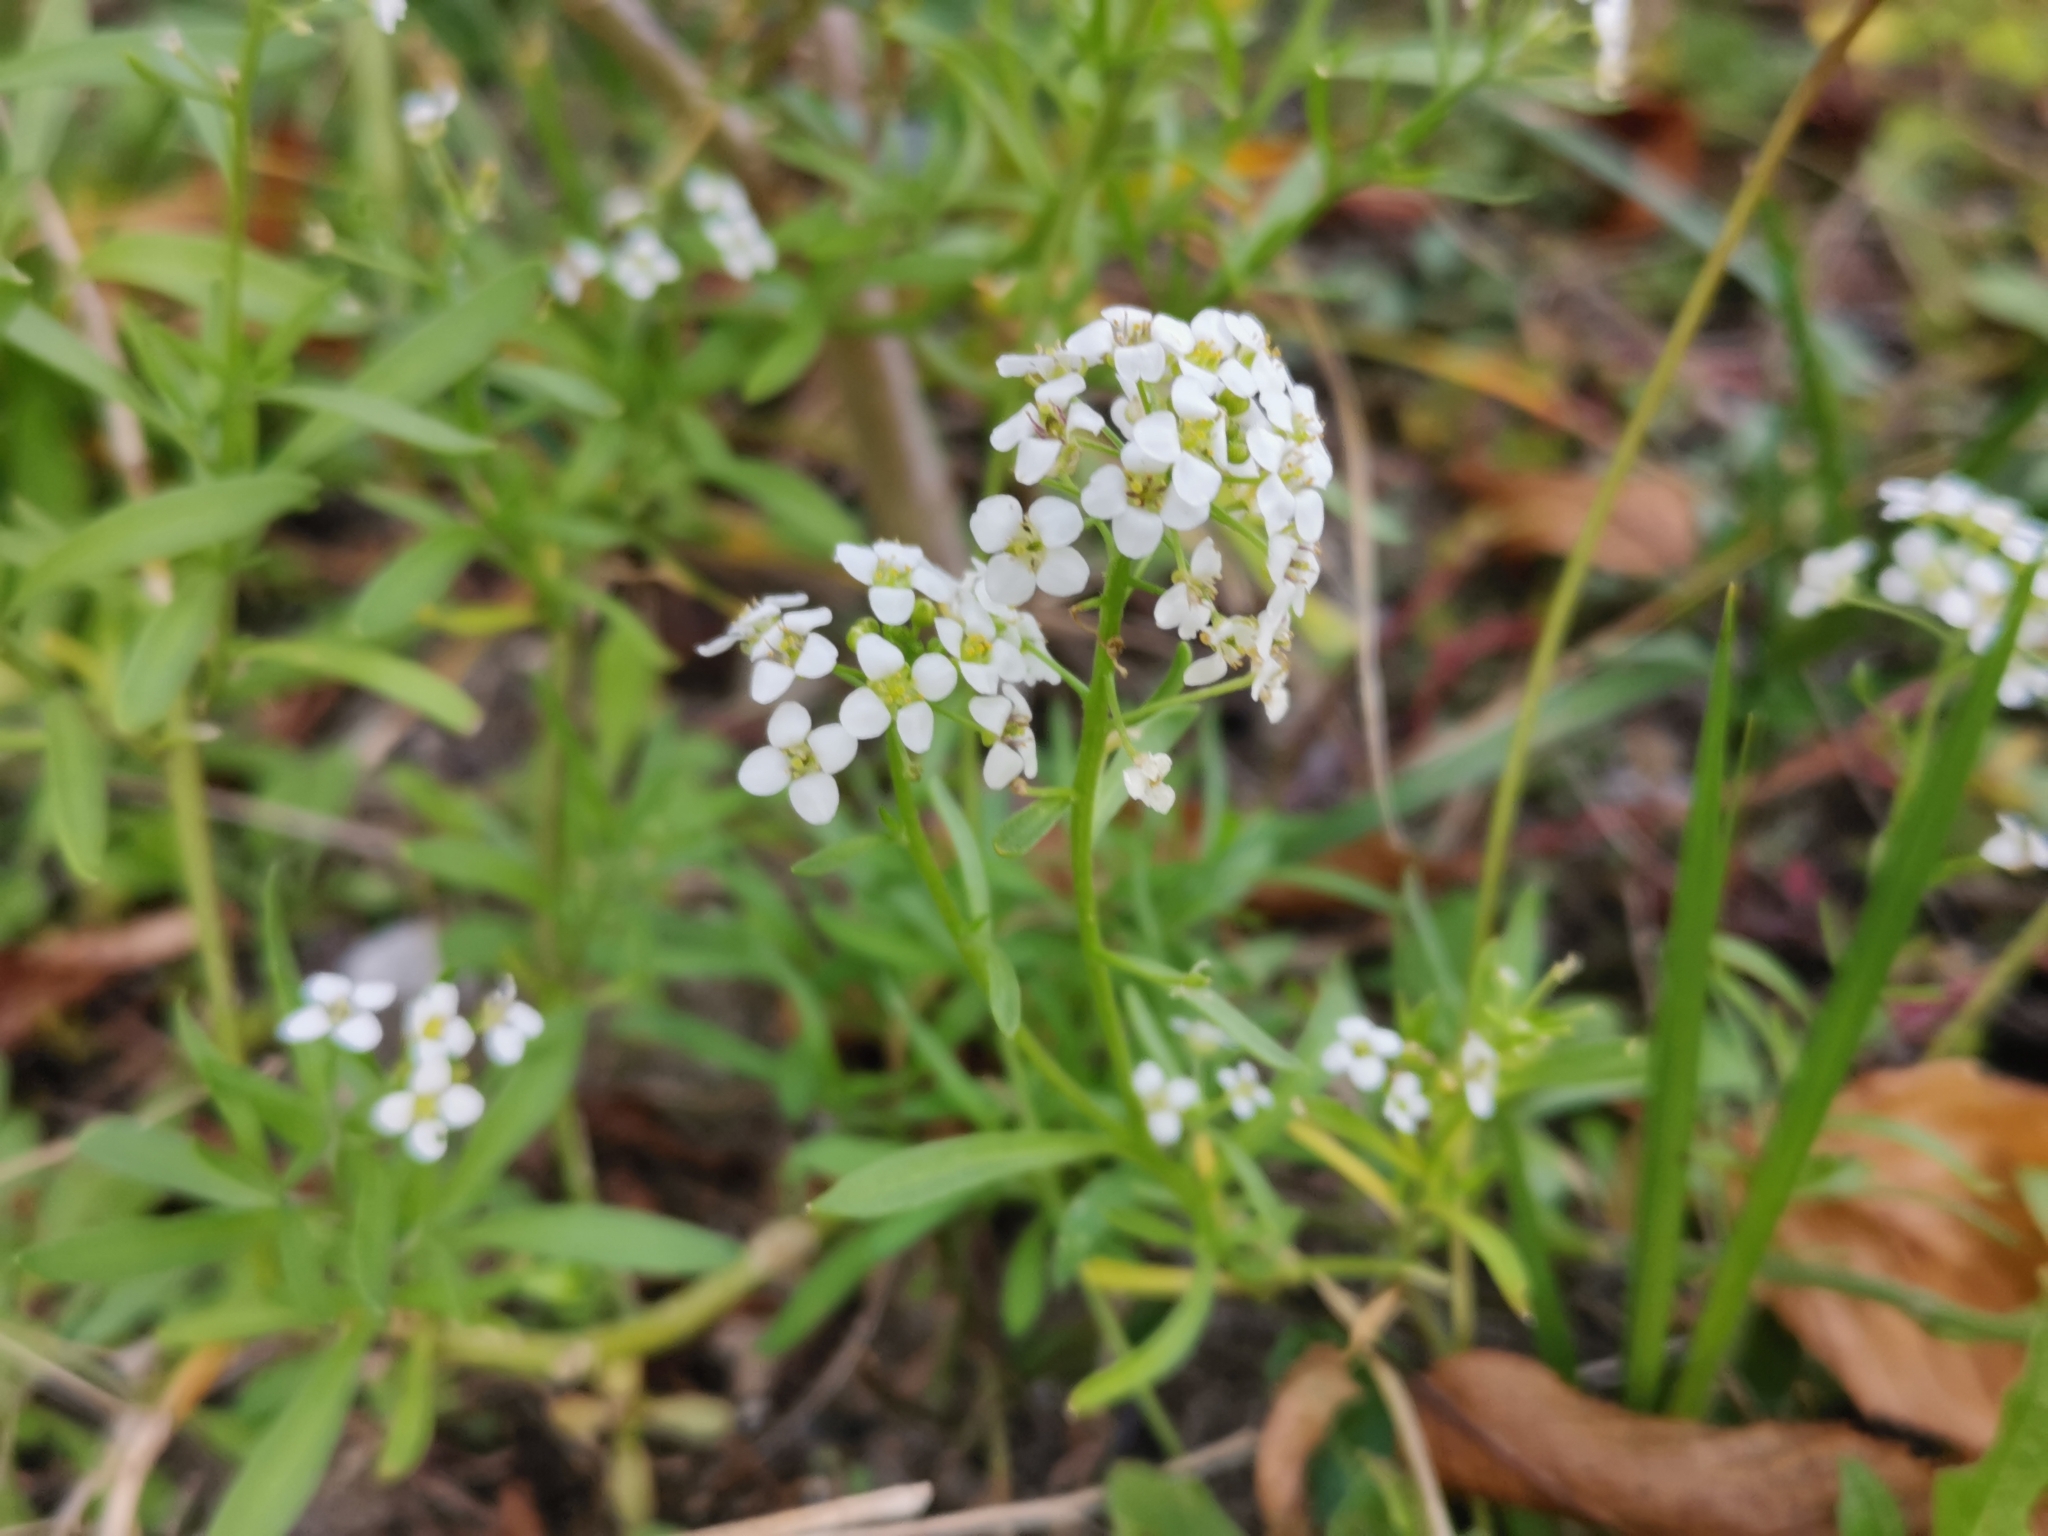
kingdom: Plantae
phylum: Tracheophyta
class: Magnoliopsida
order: Brassicales
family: Brassicaceae
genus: Lobularia
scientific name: Lobularia maritima
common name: Sweet alison
